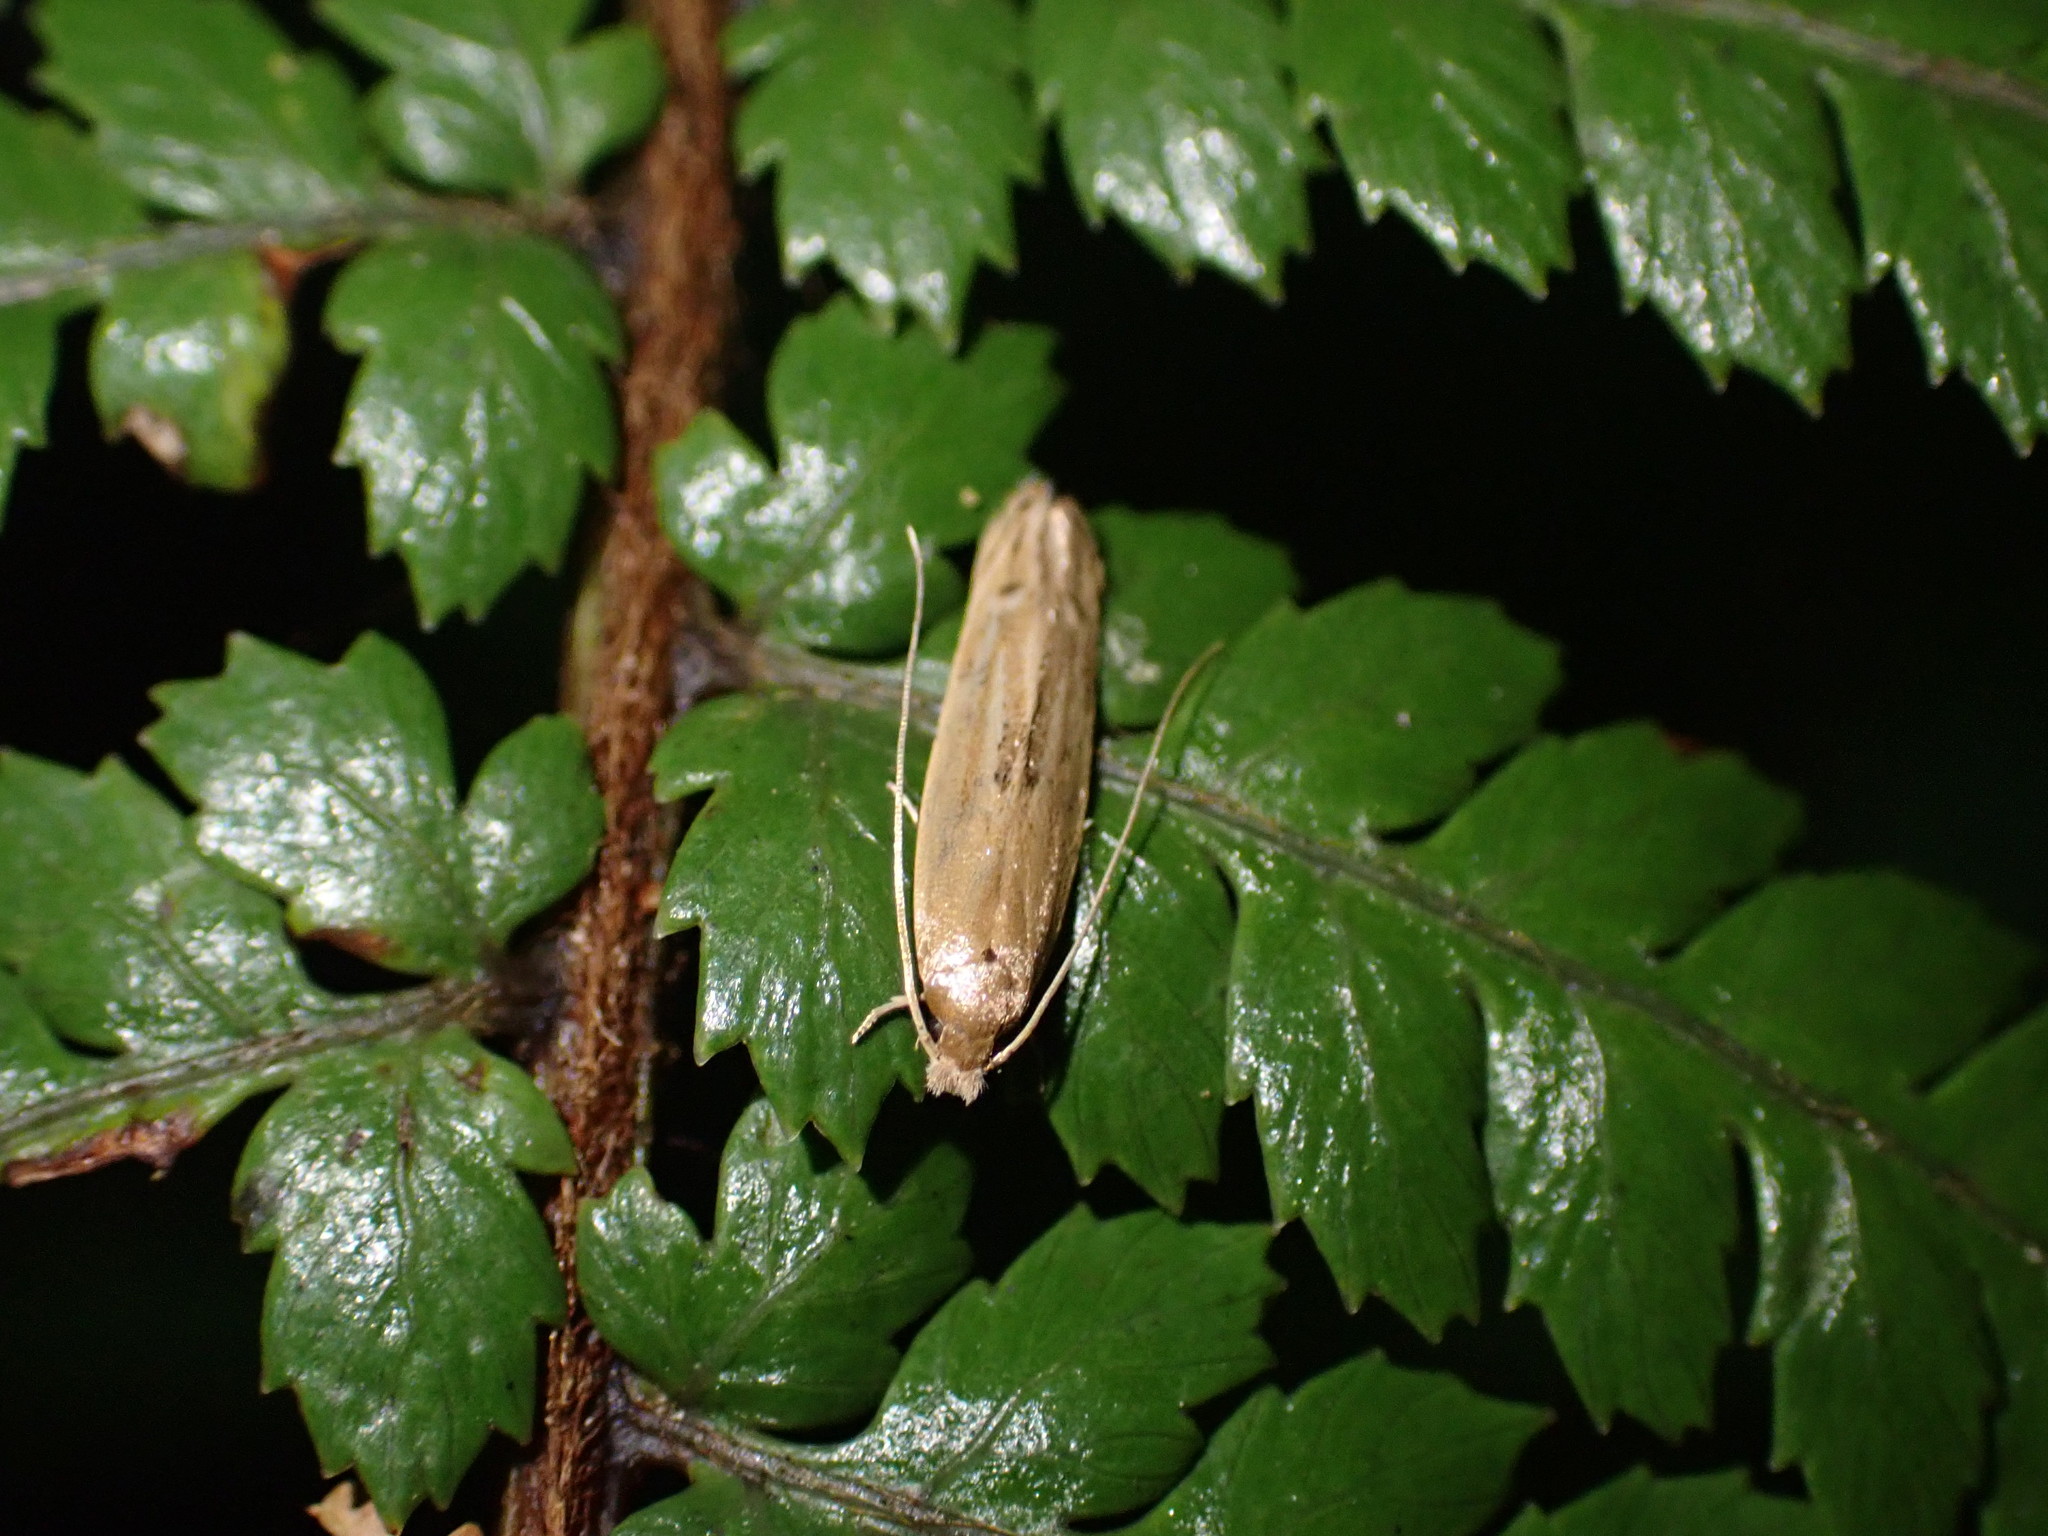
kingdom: Animalia
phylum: Arthropoda
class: Insecta
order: Lepidoptera
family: Tineidae
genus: Amphixystis
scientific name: Amphixystis hapsimacha
